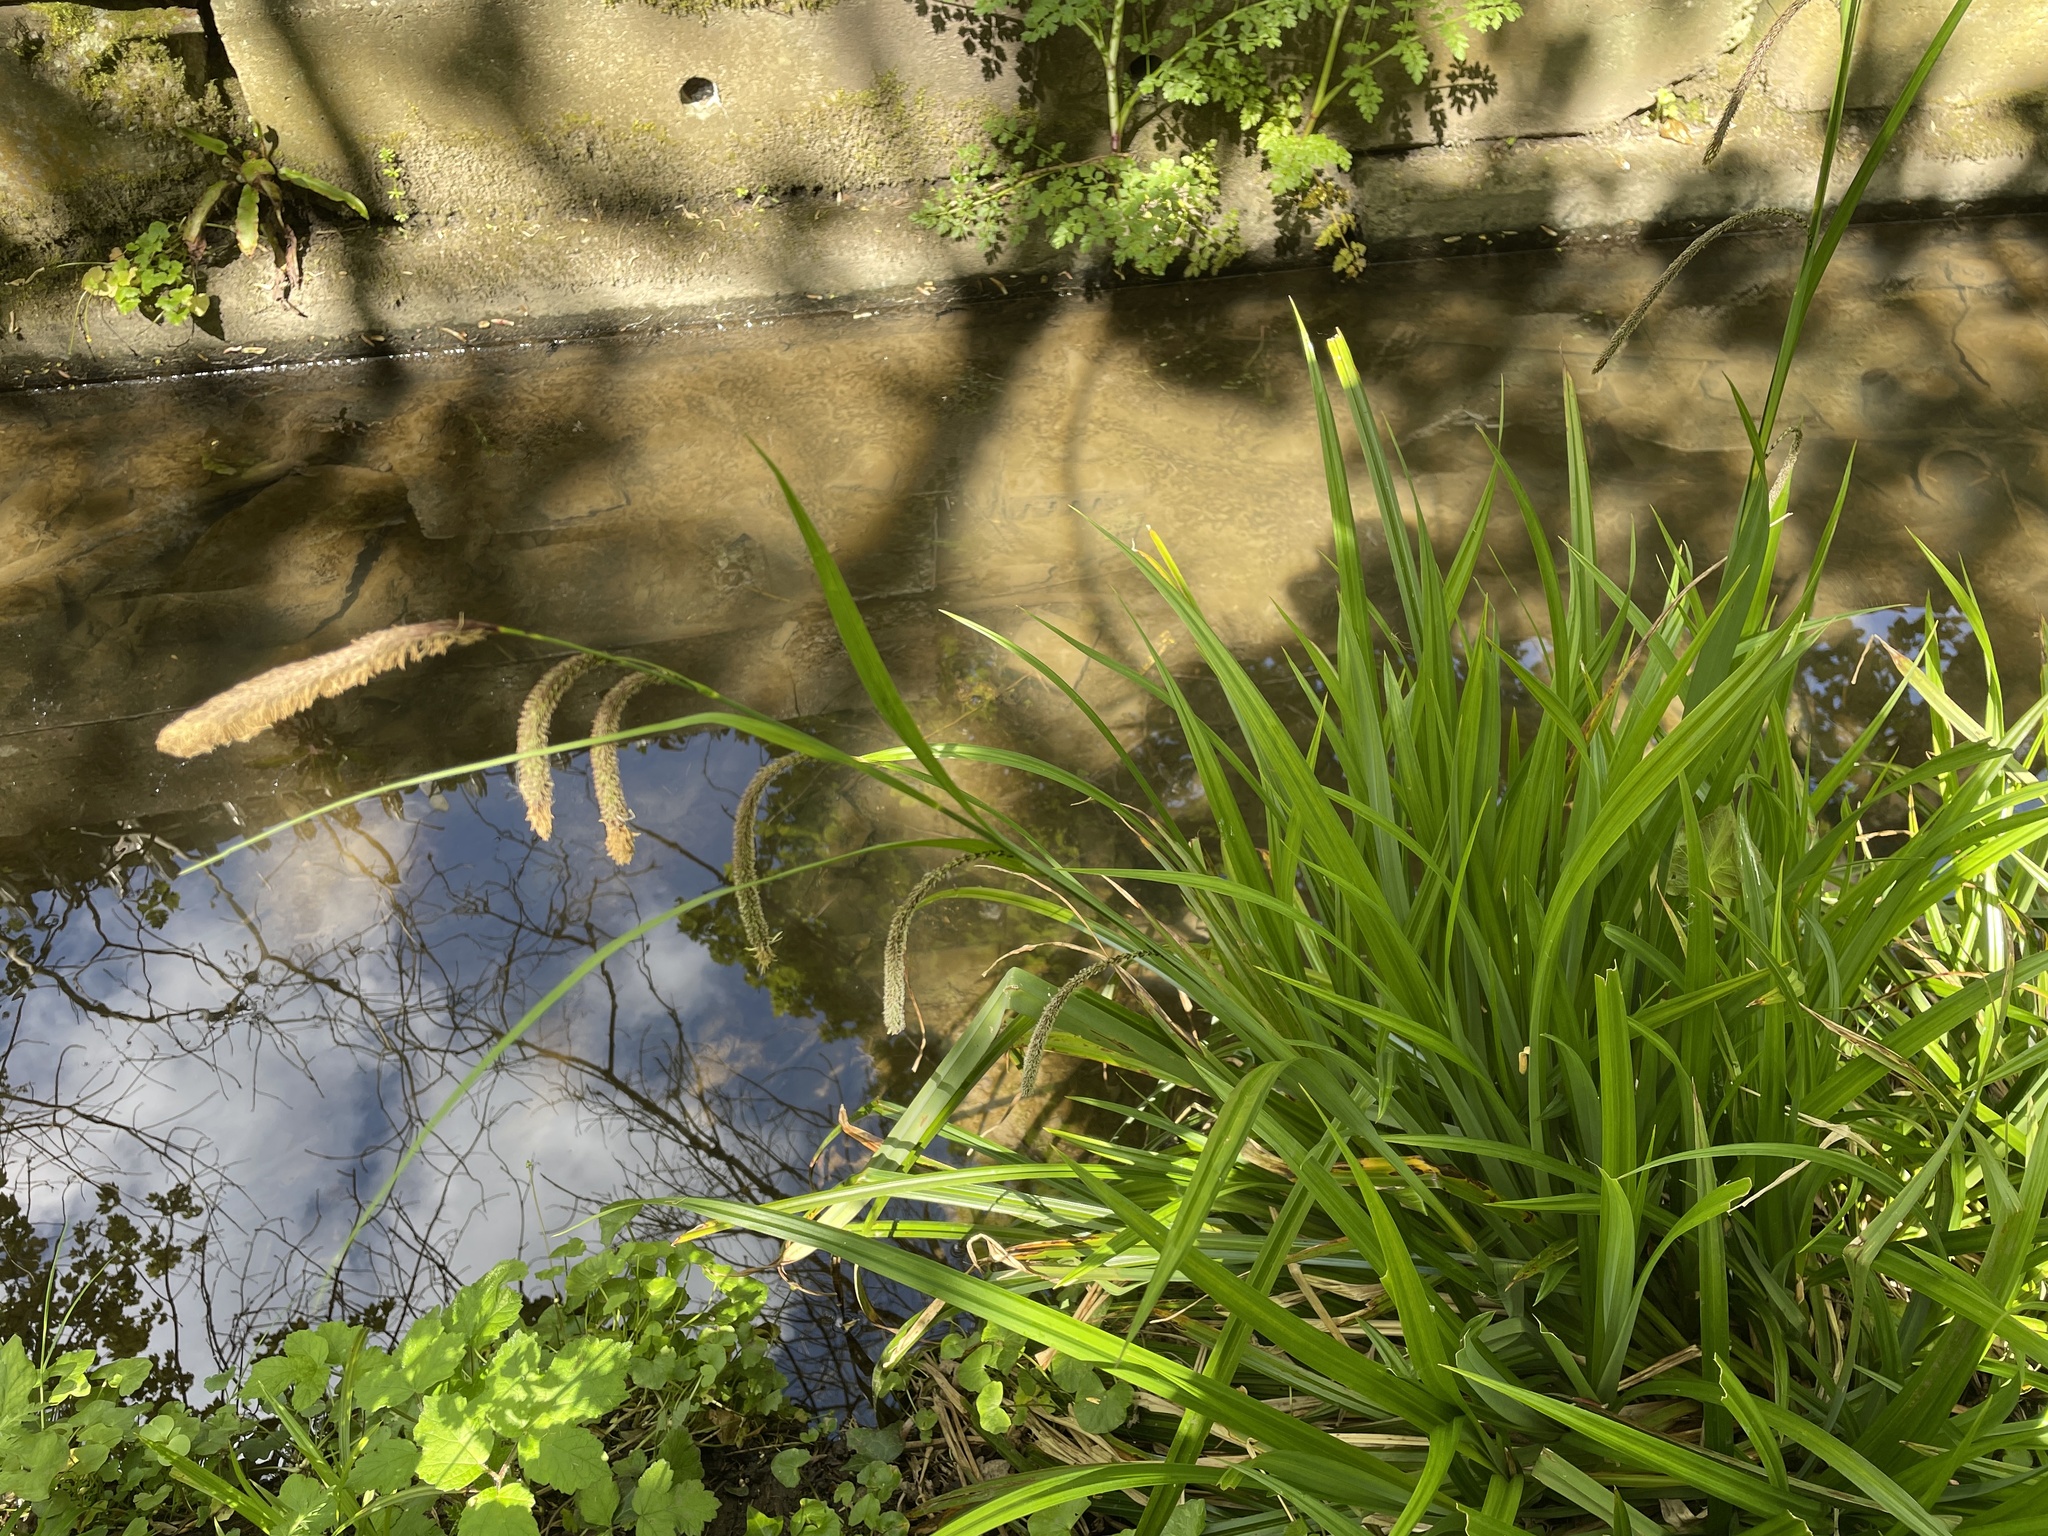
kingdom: Plantae
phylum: Tracheophyta
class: Liliopsida
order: Poales
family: Cyperaceae
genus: Carex
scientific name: Carex pendula
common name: Pendulous sedge
